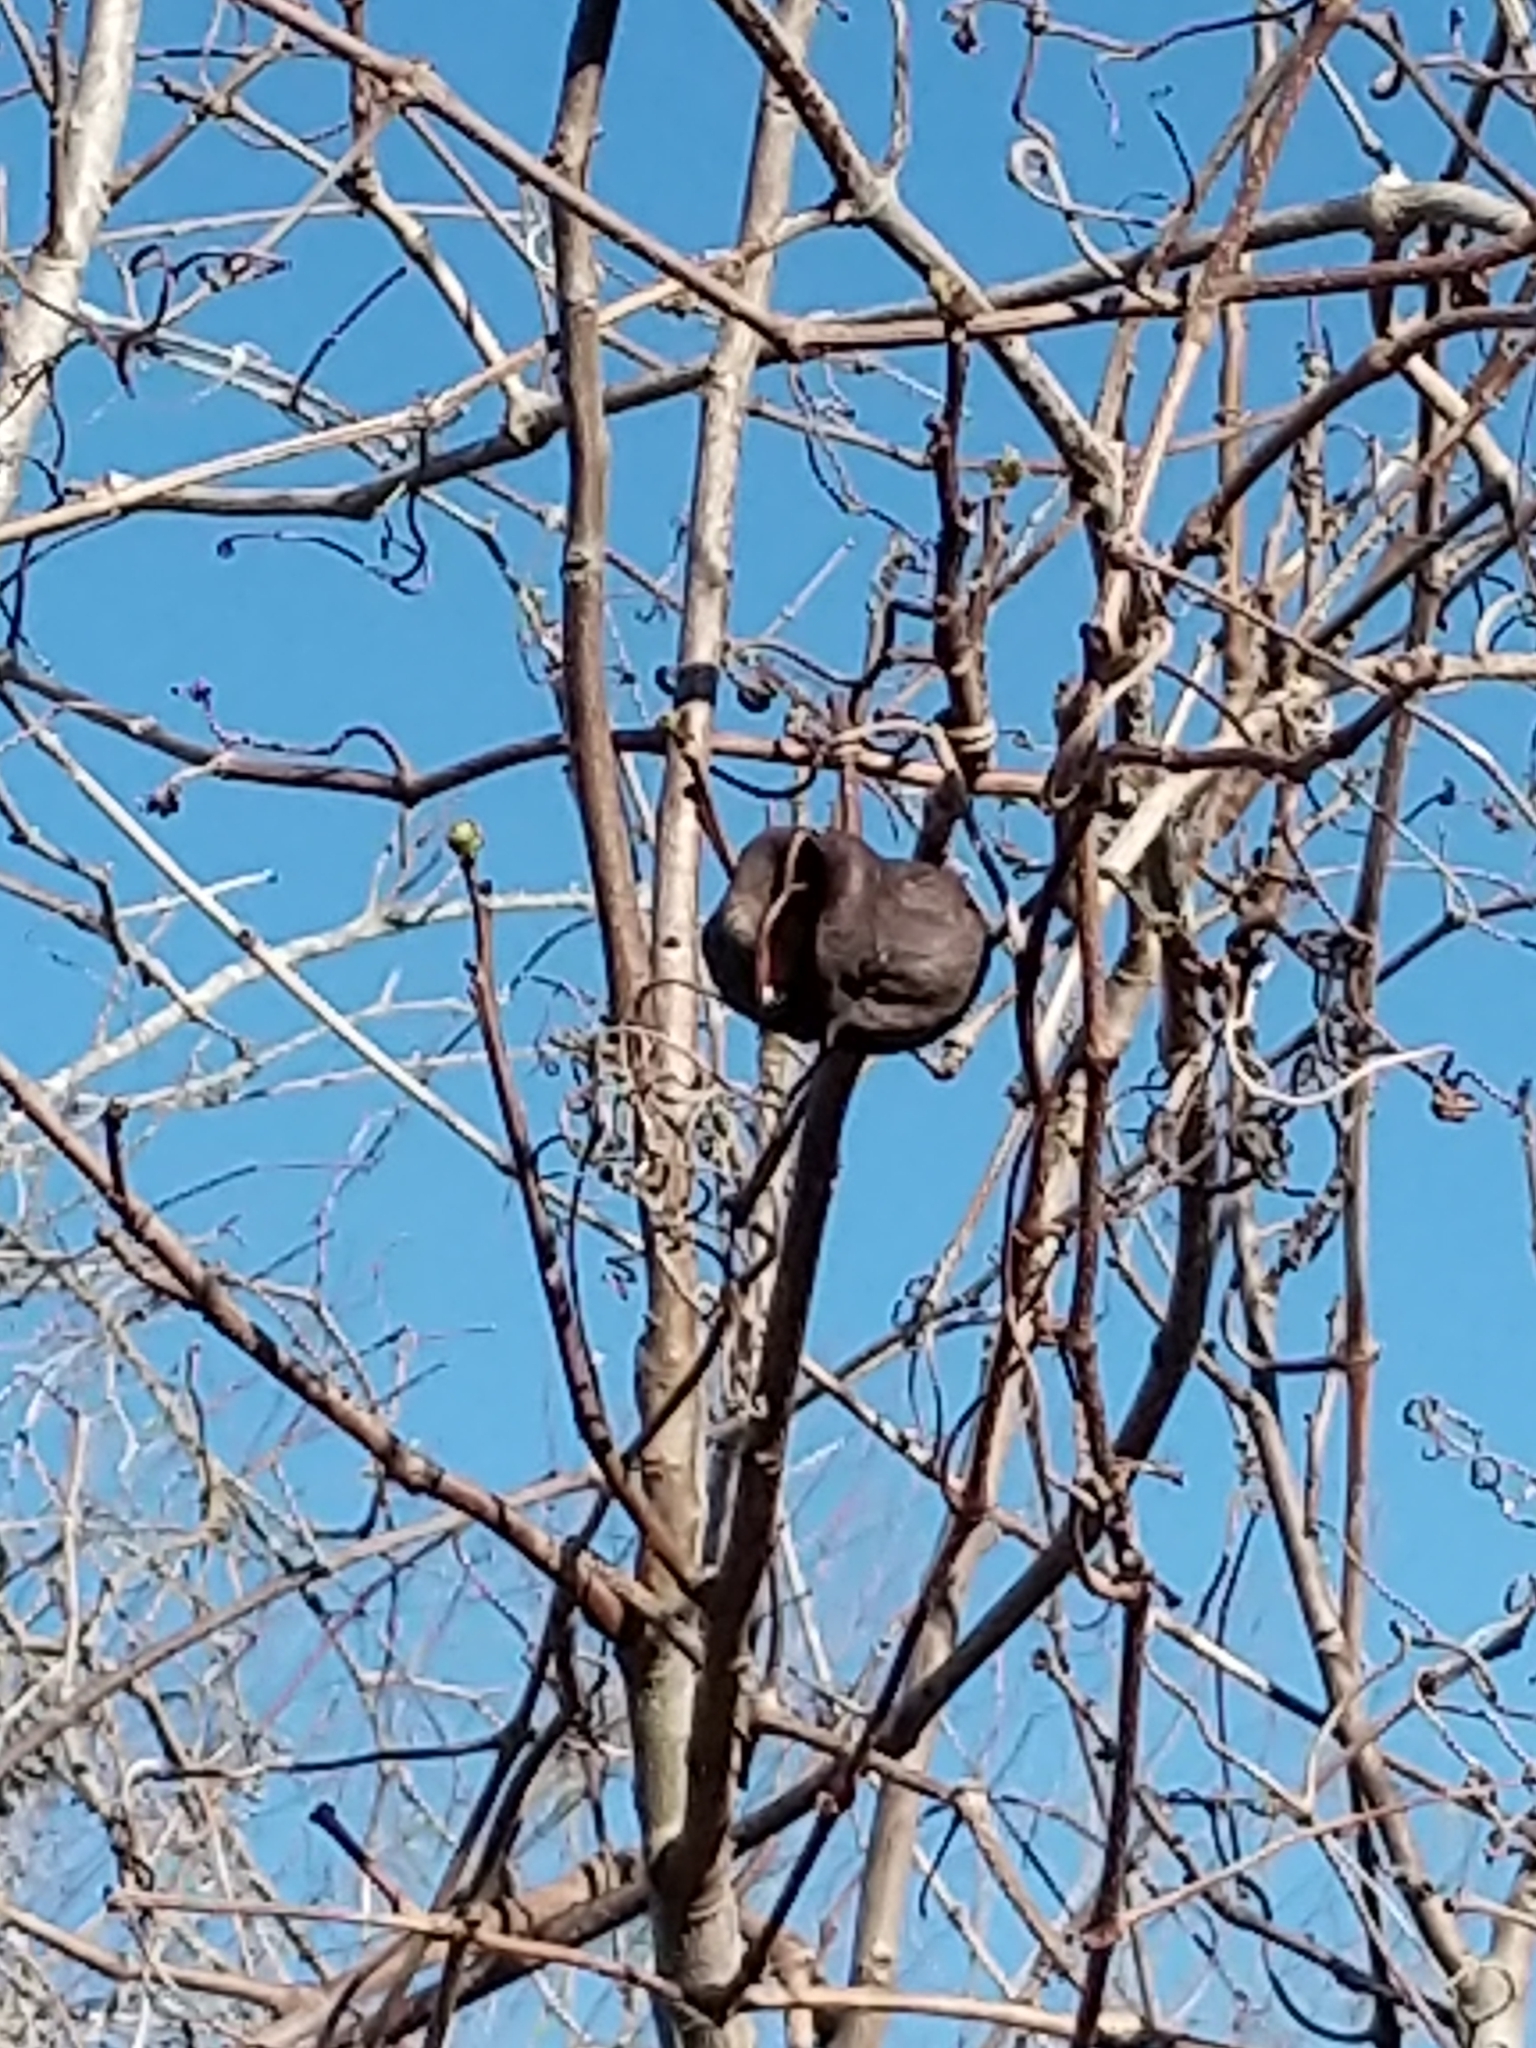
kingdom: Plantae
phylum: Tracheophyta
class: Magnoliopsida
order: Sapindales
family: Sapindaceae
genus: Ungnadia
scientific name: Ungnadia speciosa
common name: Texas-buckeye
